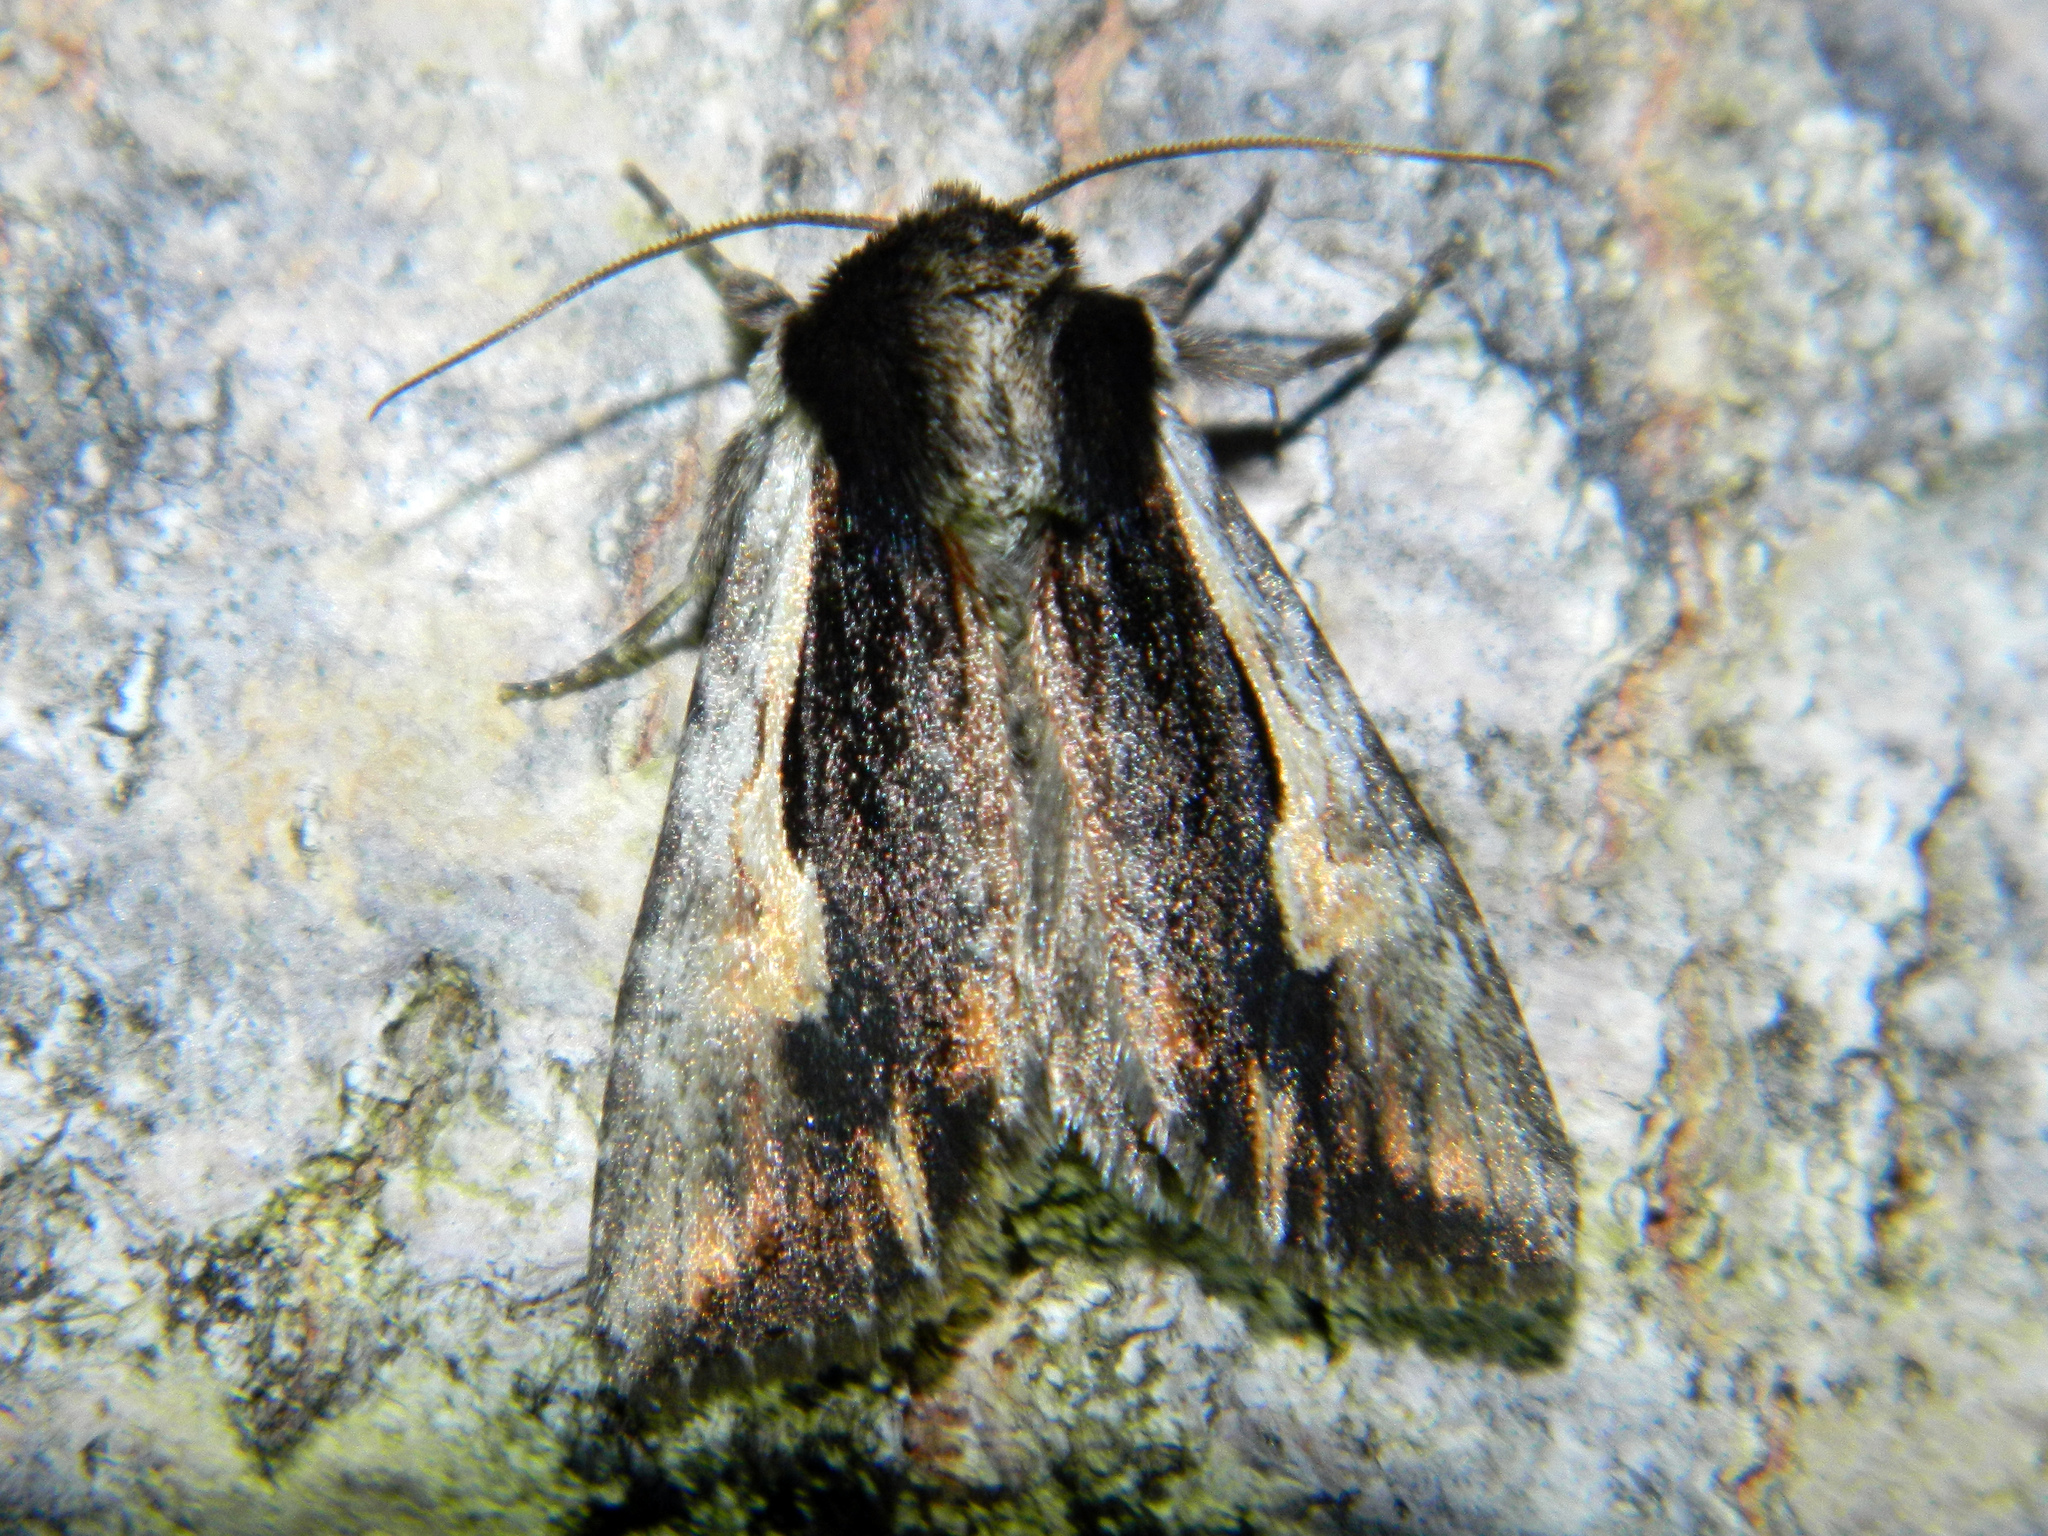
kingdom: Animalia
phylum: Arthropoda
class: Insecta
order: Lepidoptera
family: Noctuidae
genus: Achatia
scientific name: Achatia evicta
